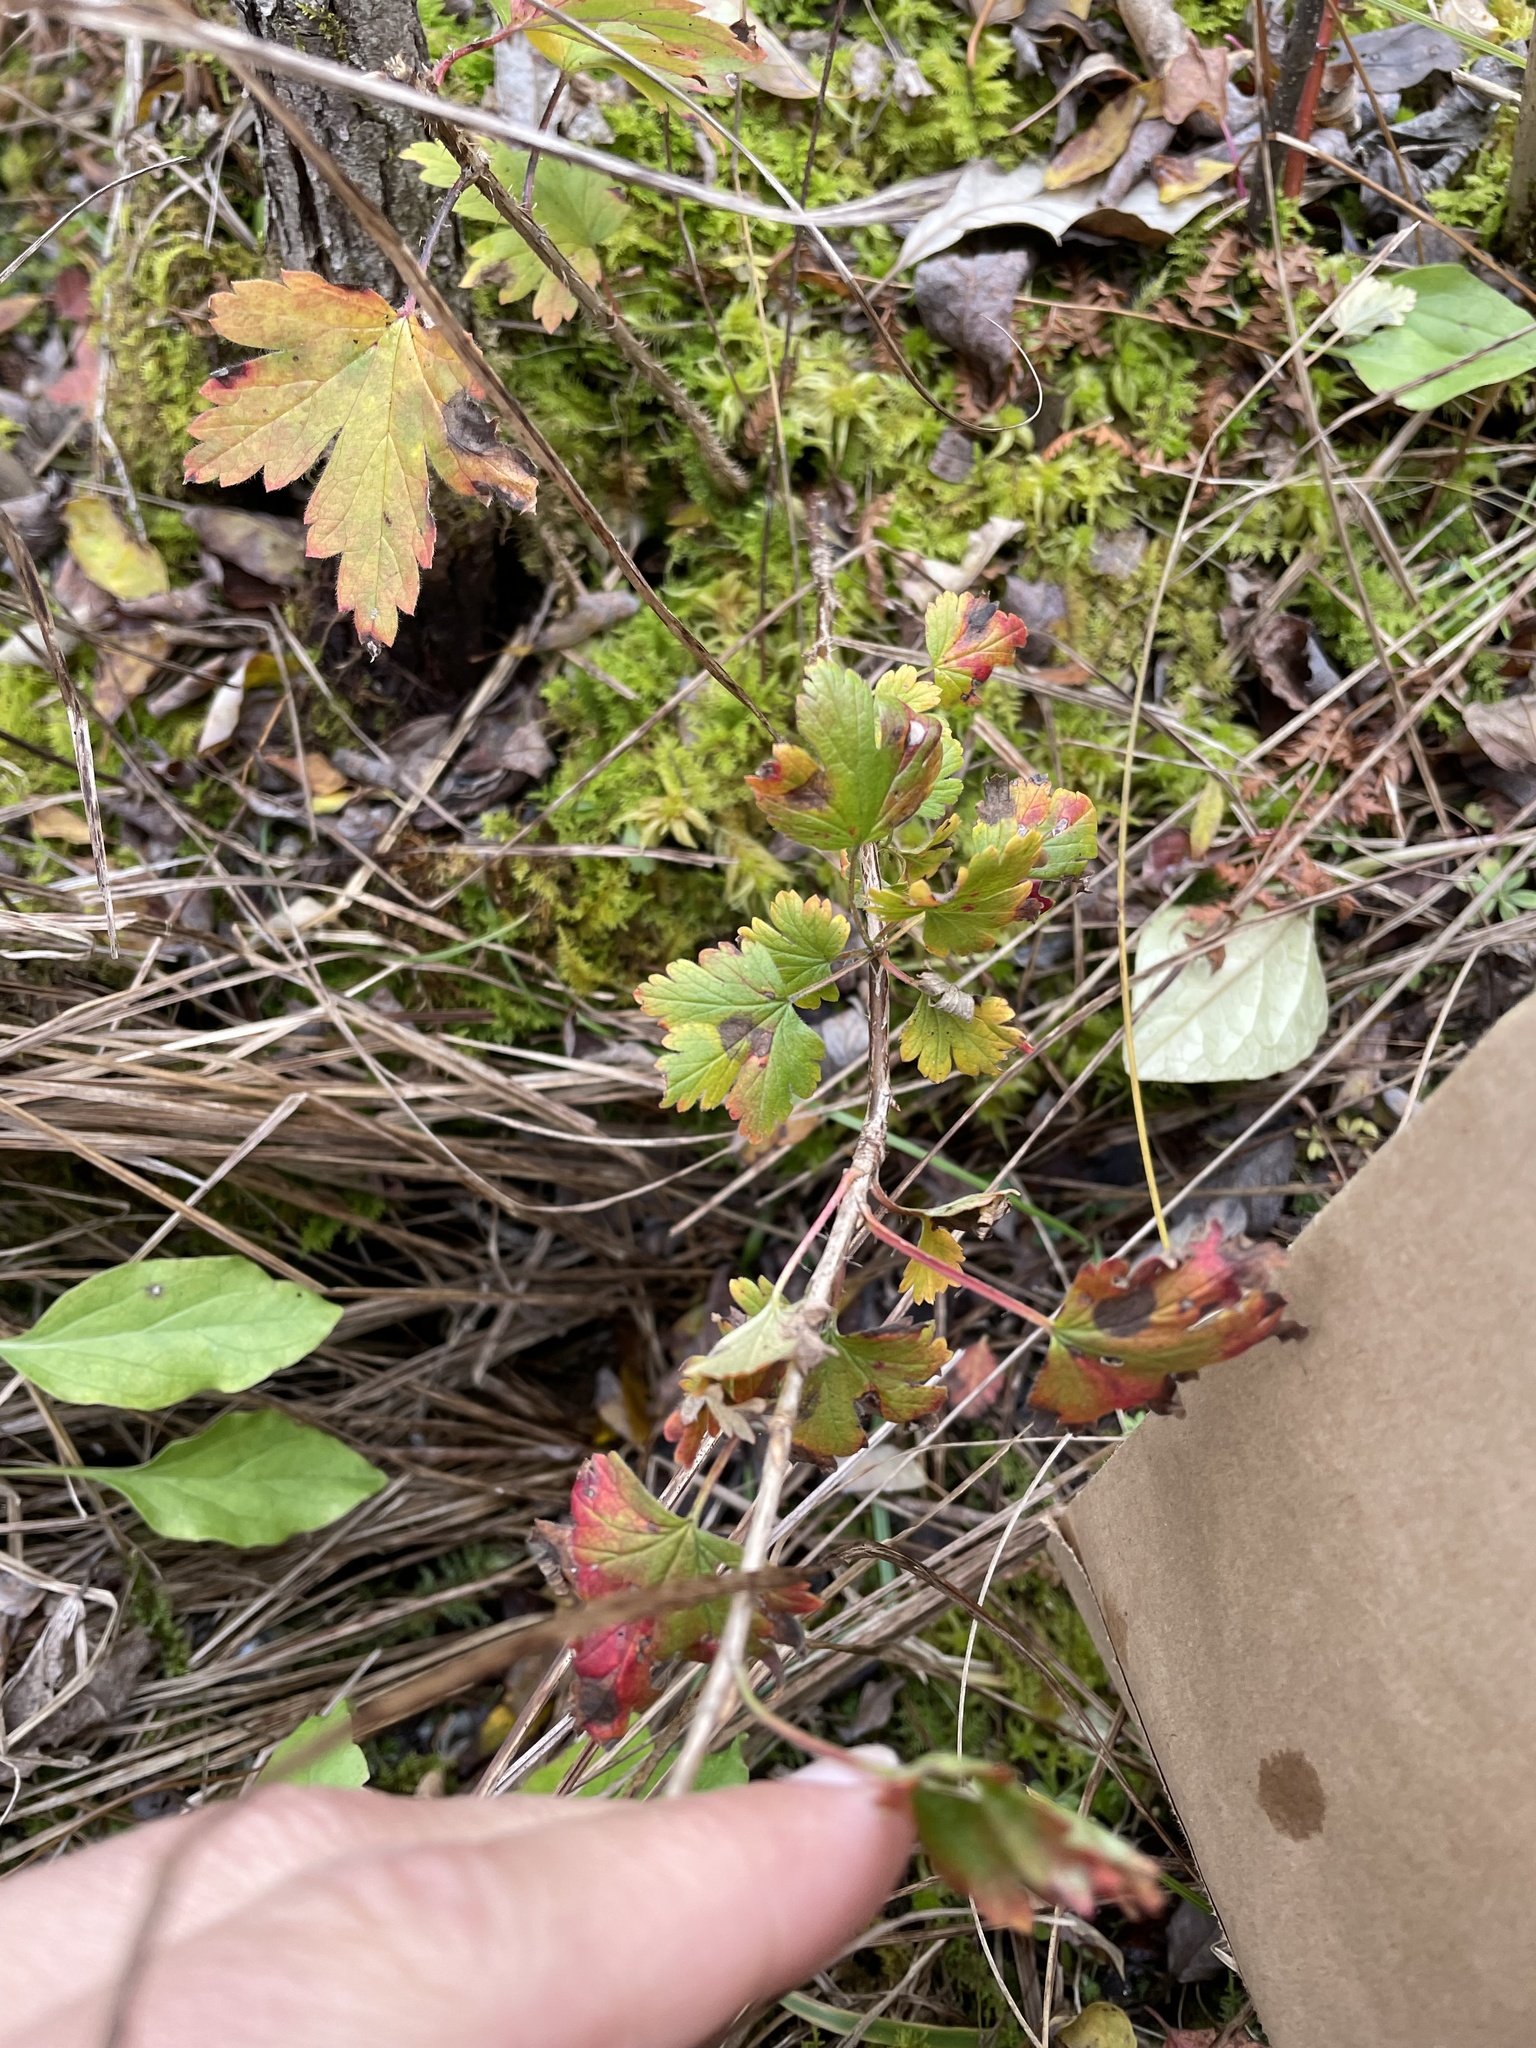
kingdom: Plantae
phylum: Tracheophyta
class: Magnoliopsida
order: Saxifragales
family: Grossulariaceae
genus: Ribes
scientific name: Ribes cynosbati
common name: American gooseberry
